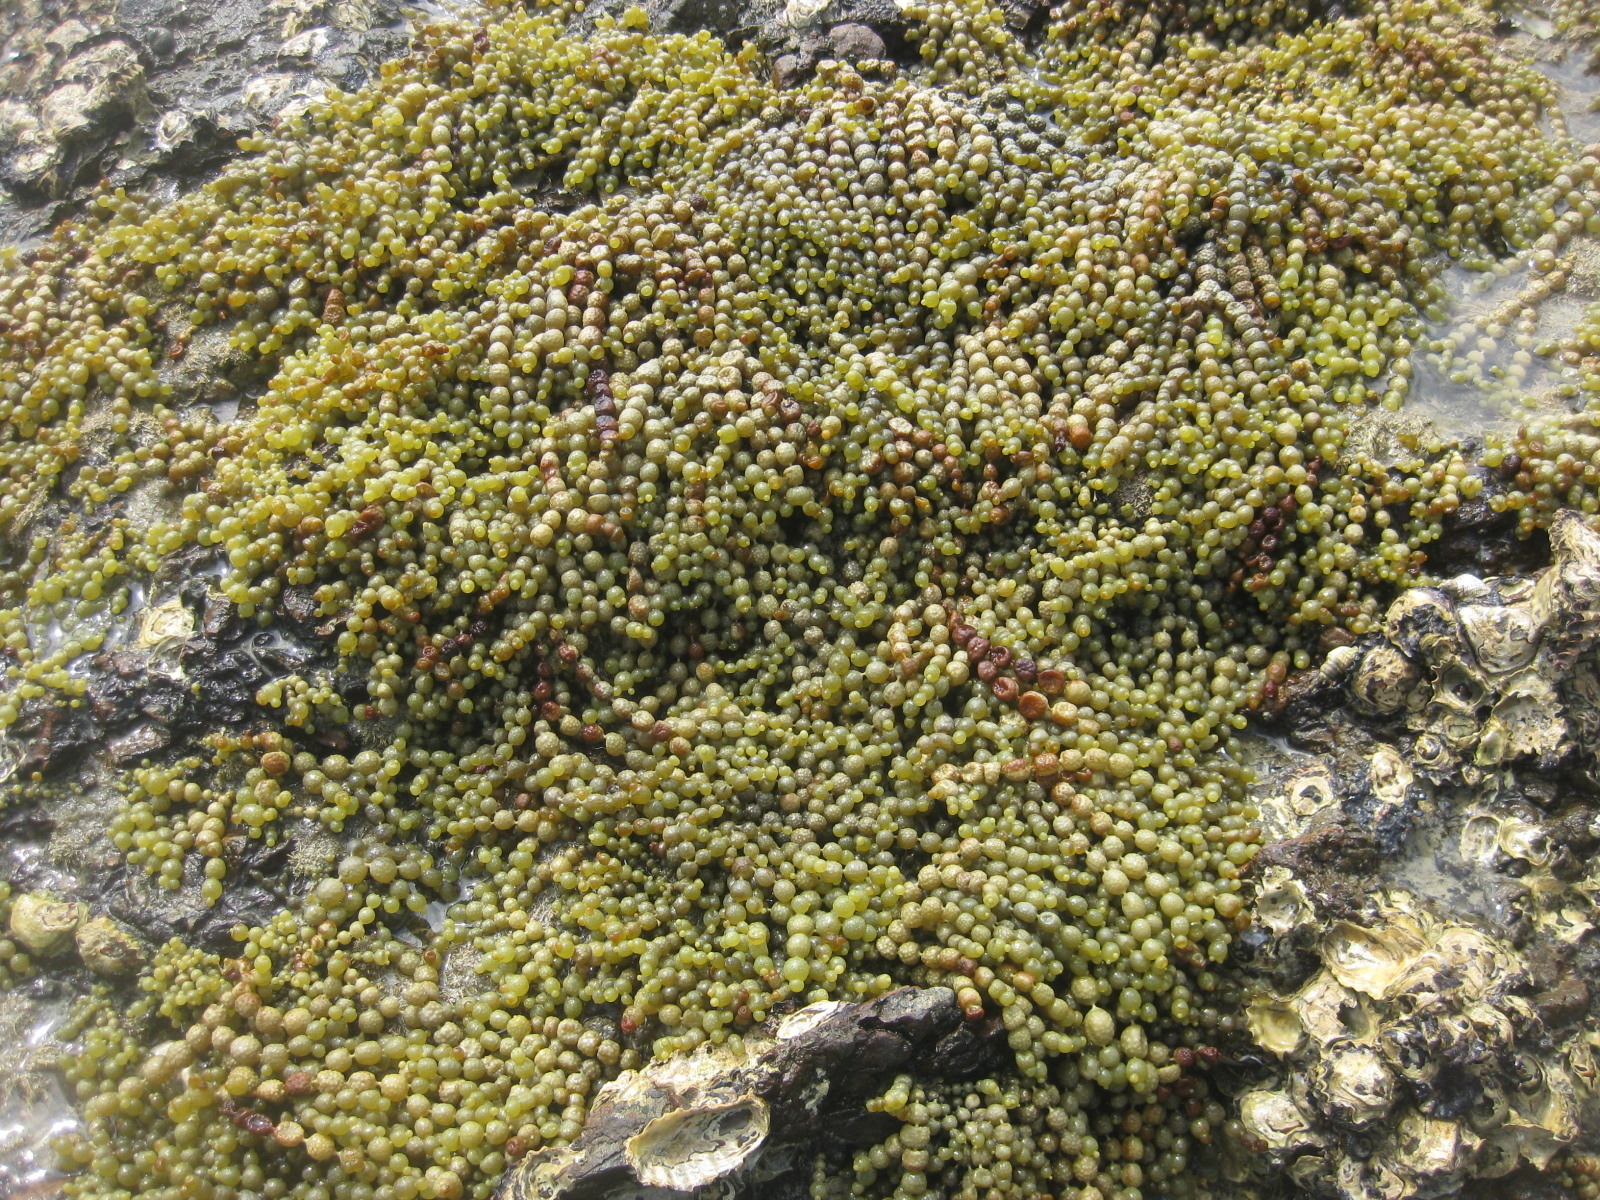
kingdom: Chromista
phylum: Ochrophyta
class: Phaeophyceae
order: Fucales
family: Hormosiraceae
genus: Hormosira
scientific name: Hormosira banksii
